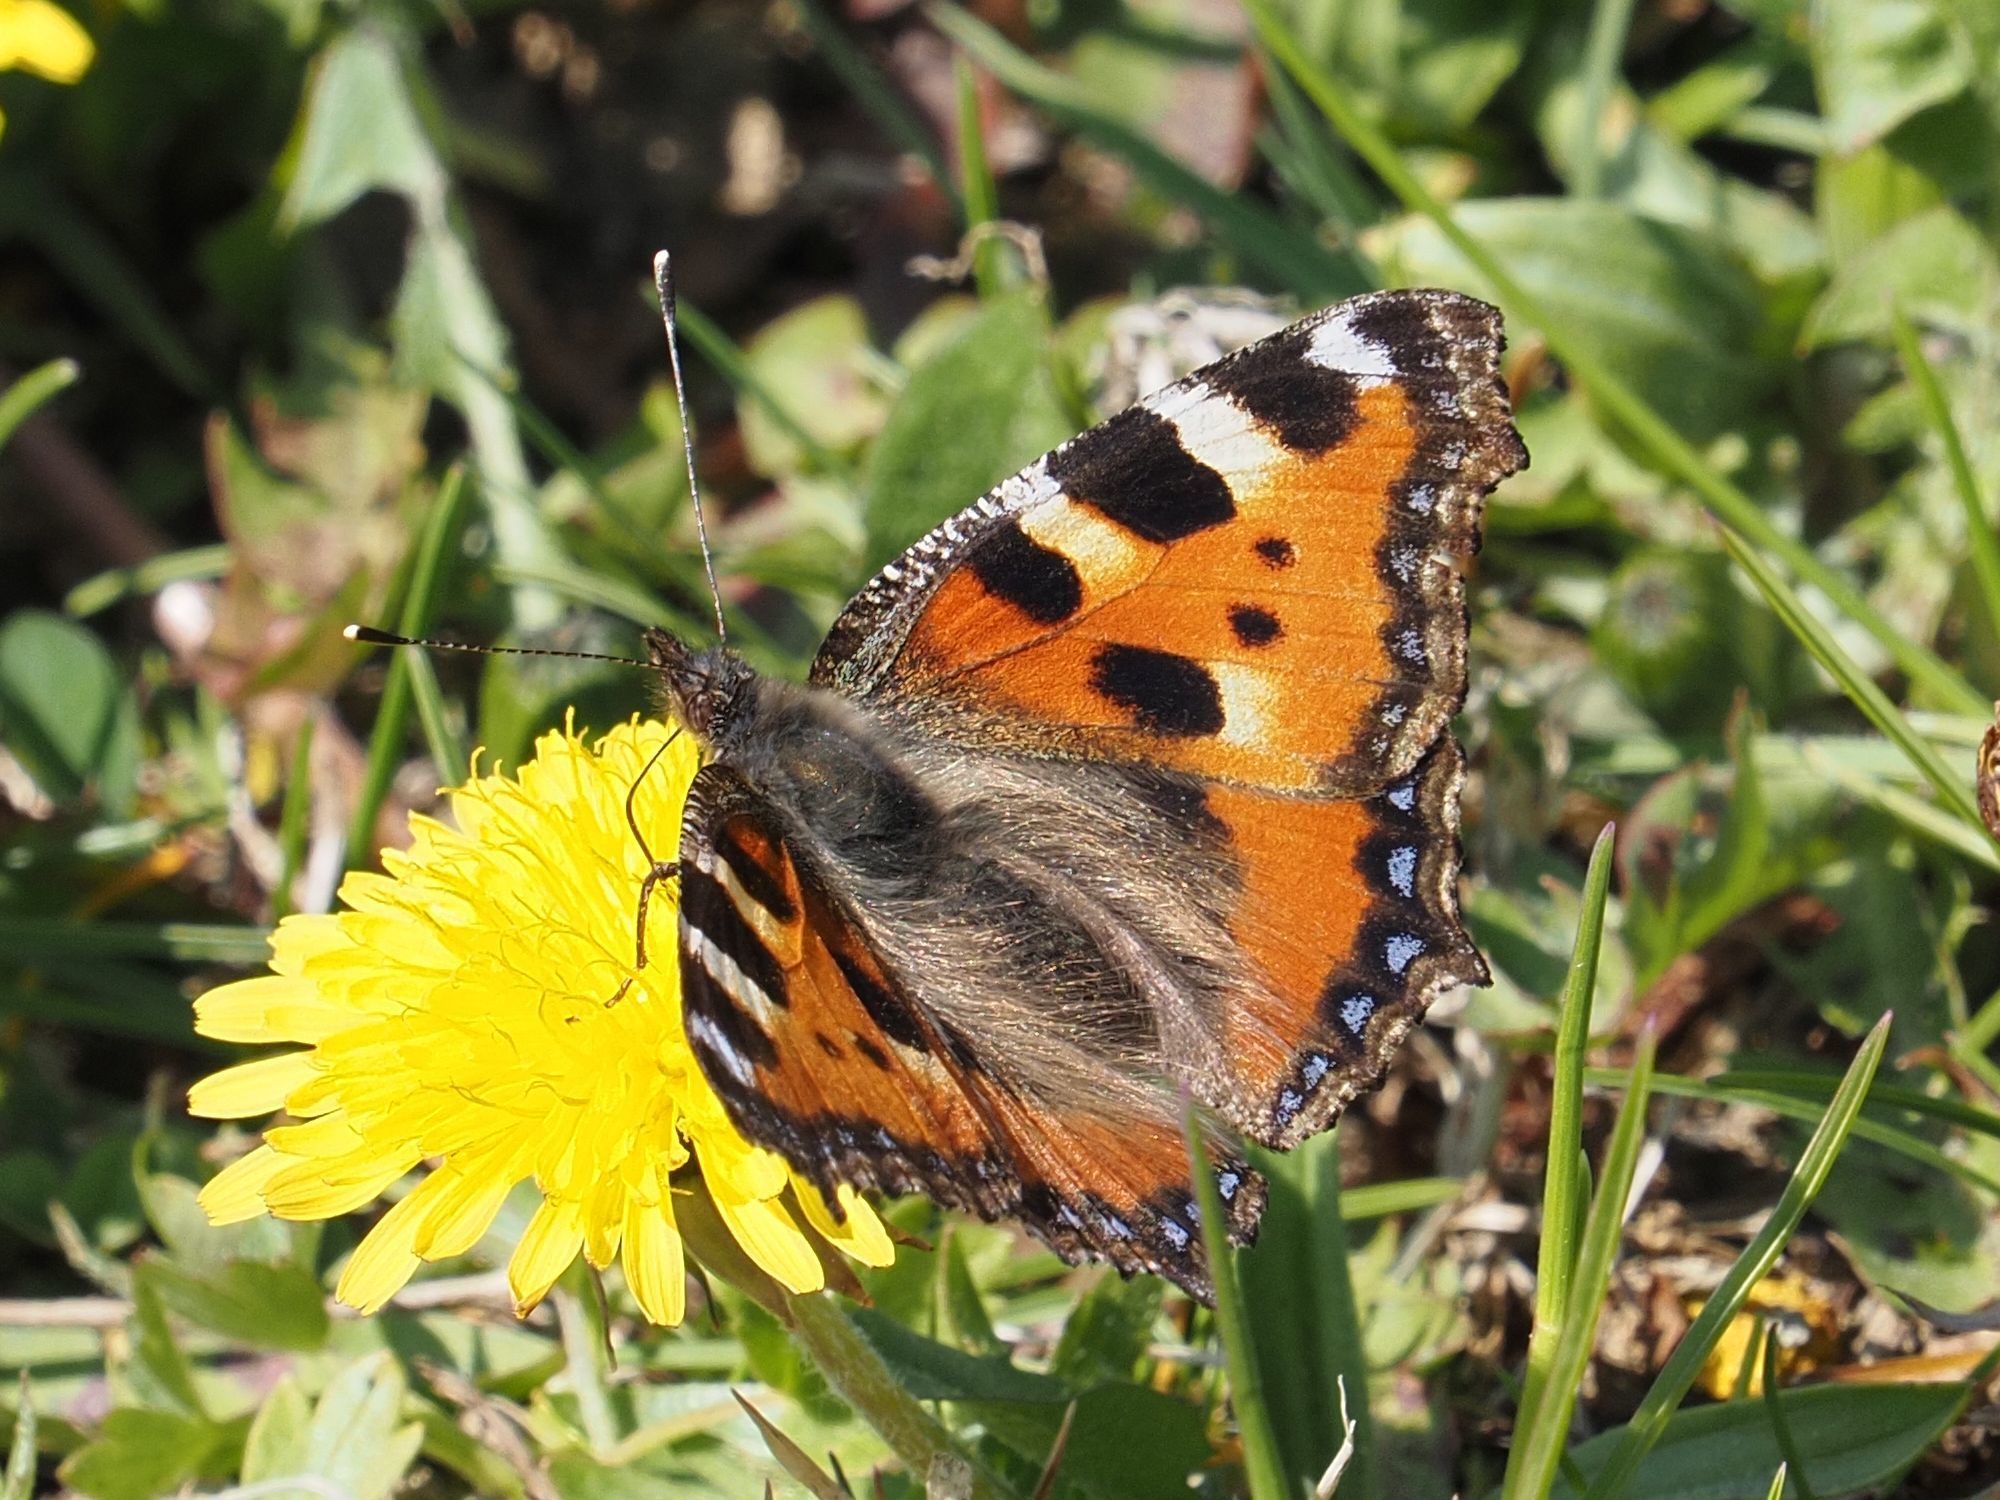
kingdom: Animalia
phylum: Arthropoda
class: Insecta
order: Lepidoptera
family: Nymphalidae
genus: Aglais
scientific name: Aglais urticae
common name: Small tortoiseshell
